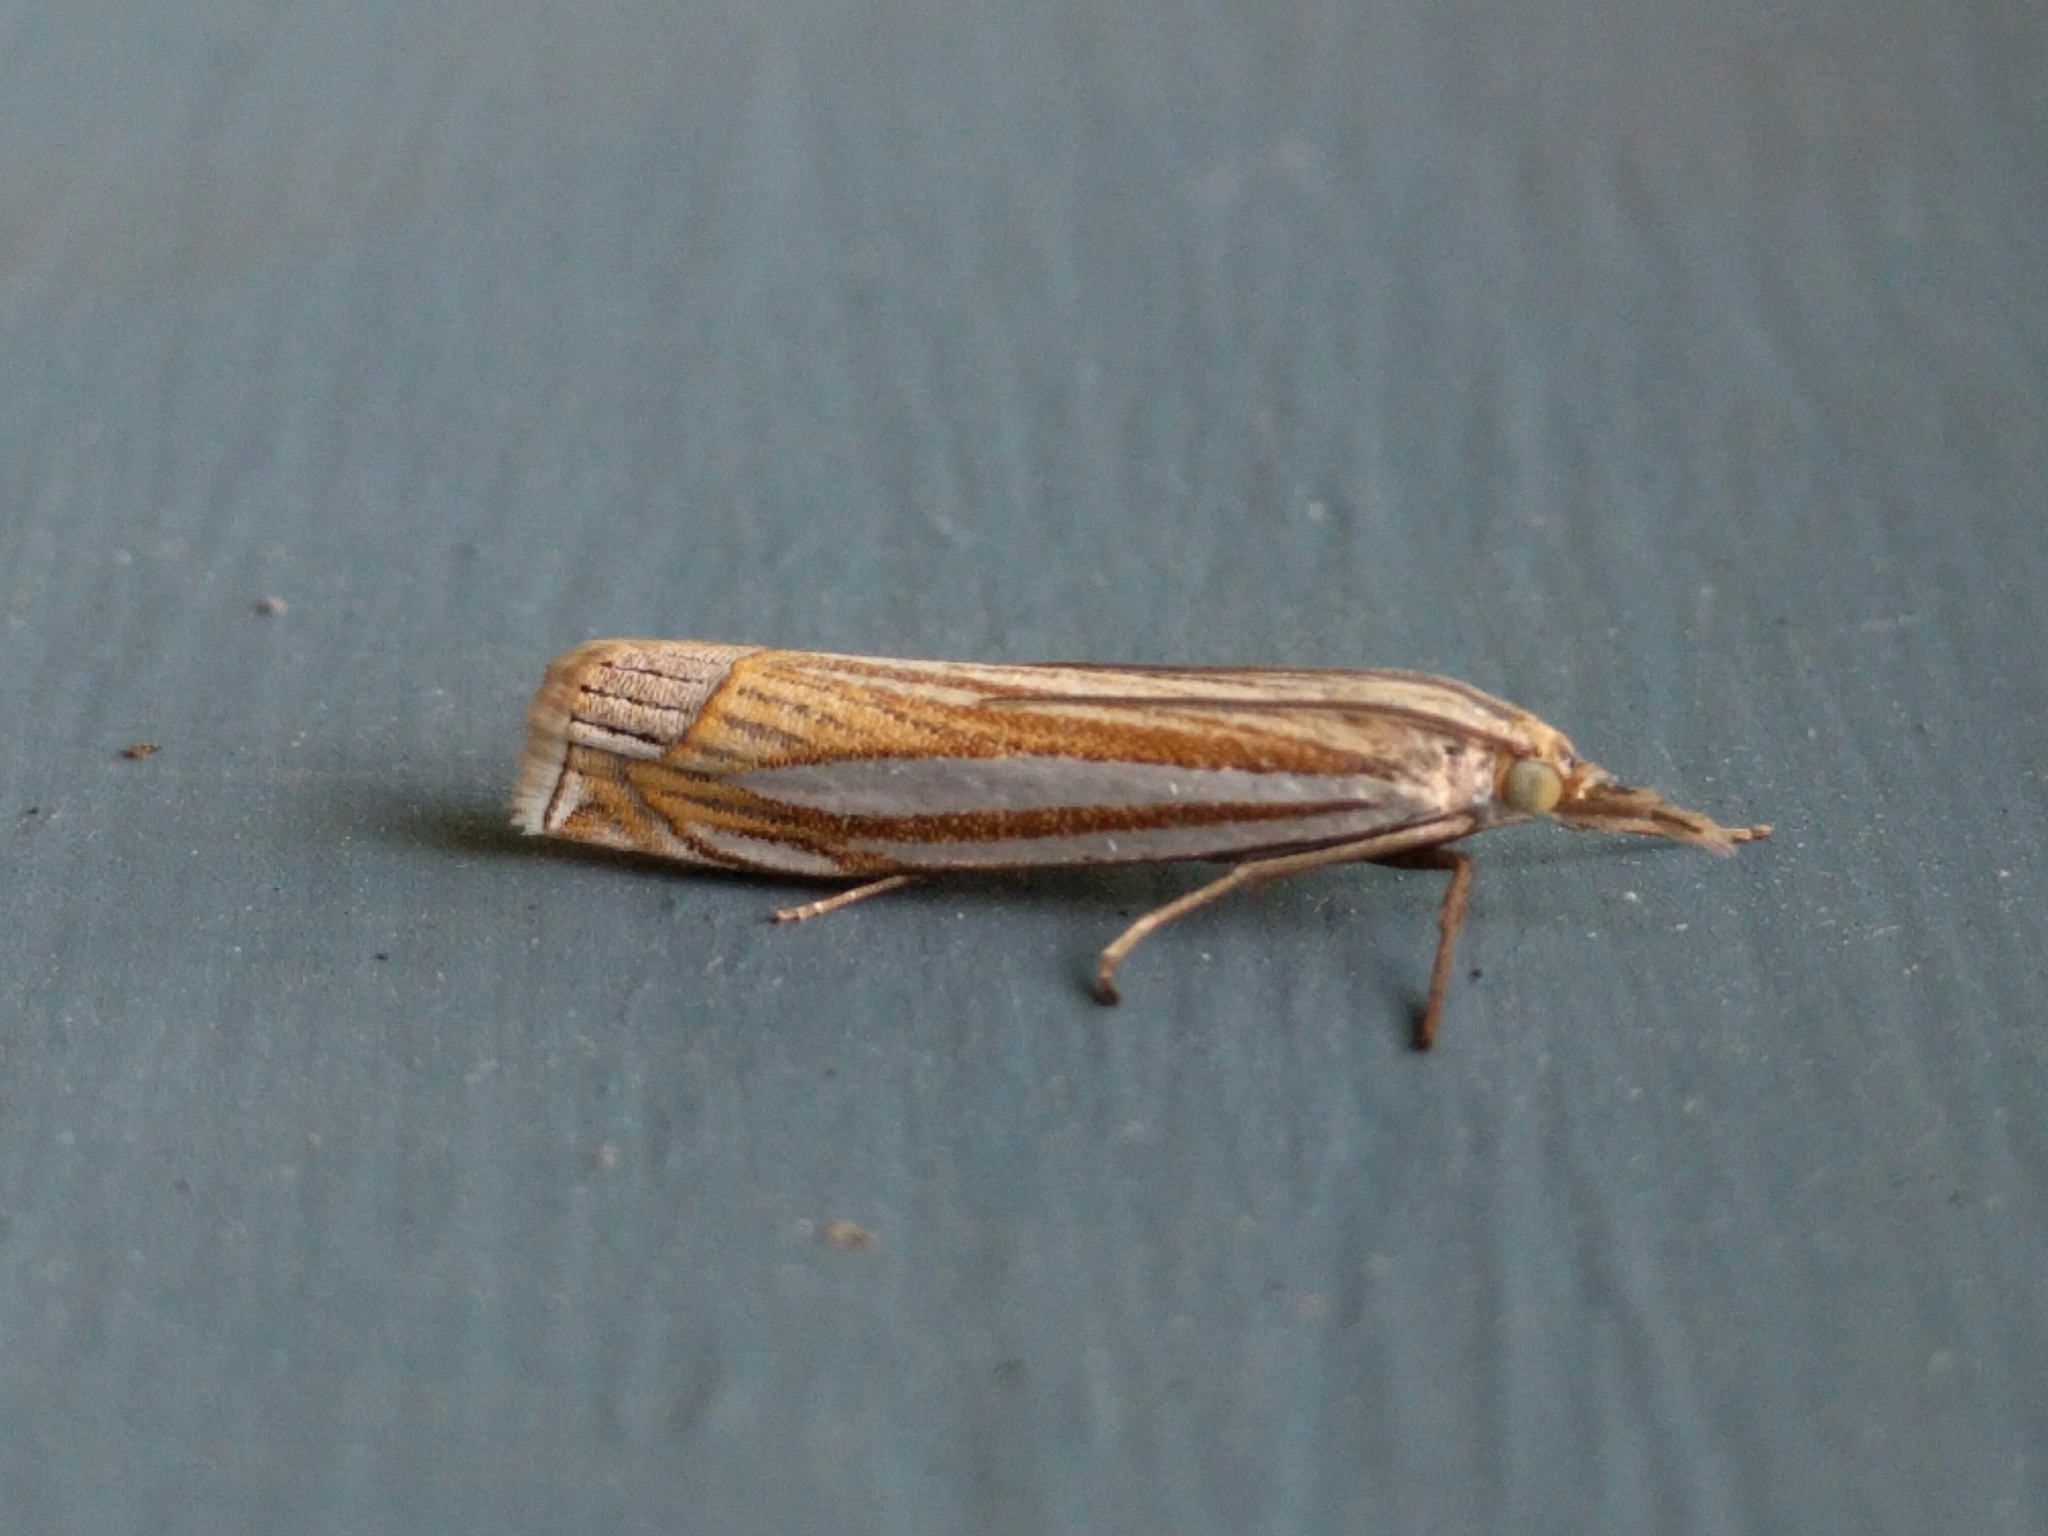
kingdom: Animalia
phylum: Arthropoda
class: Insecta
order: Lepidoptera
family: Crambidae
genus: Crambus
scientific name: Crambus laqueatellus
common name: Eastern grass-veneer
